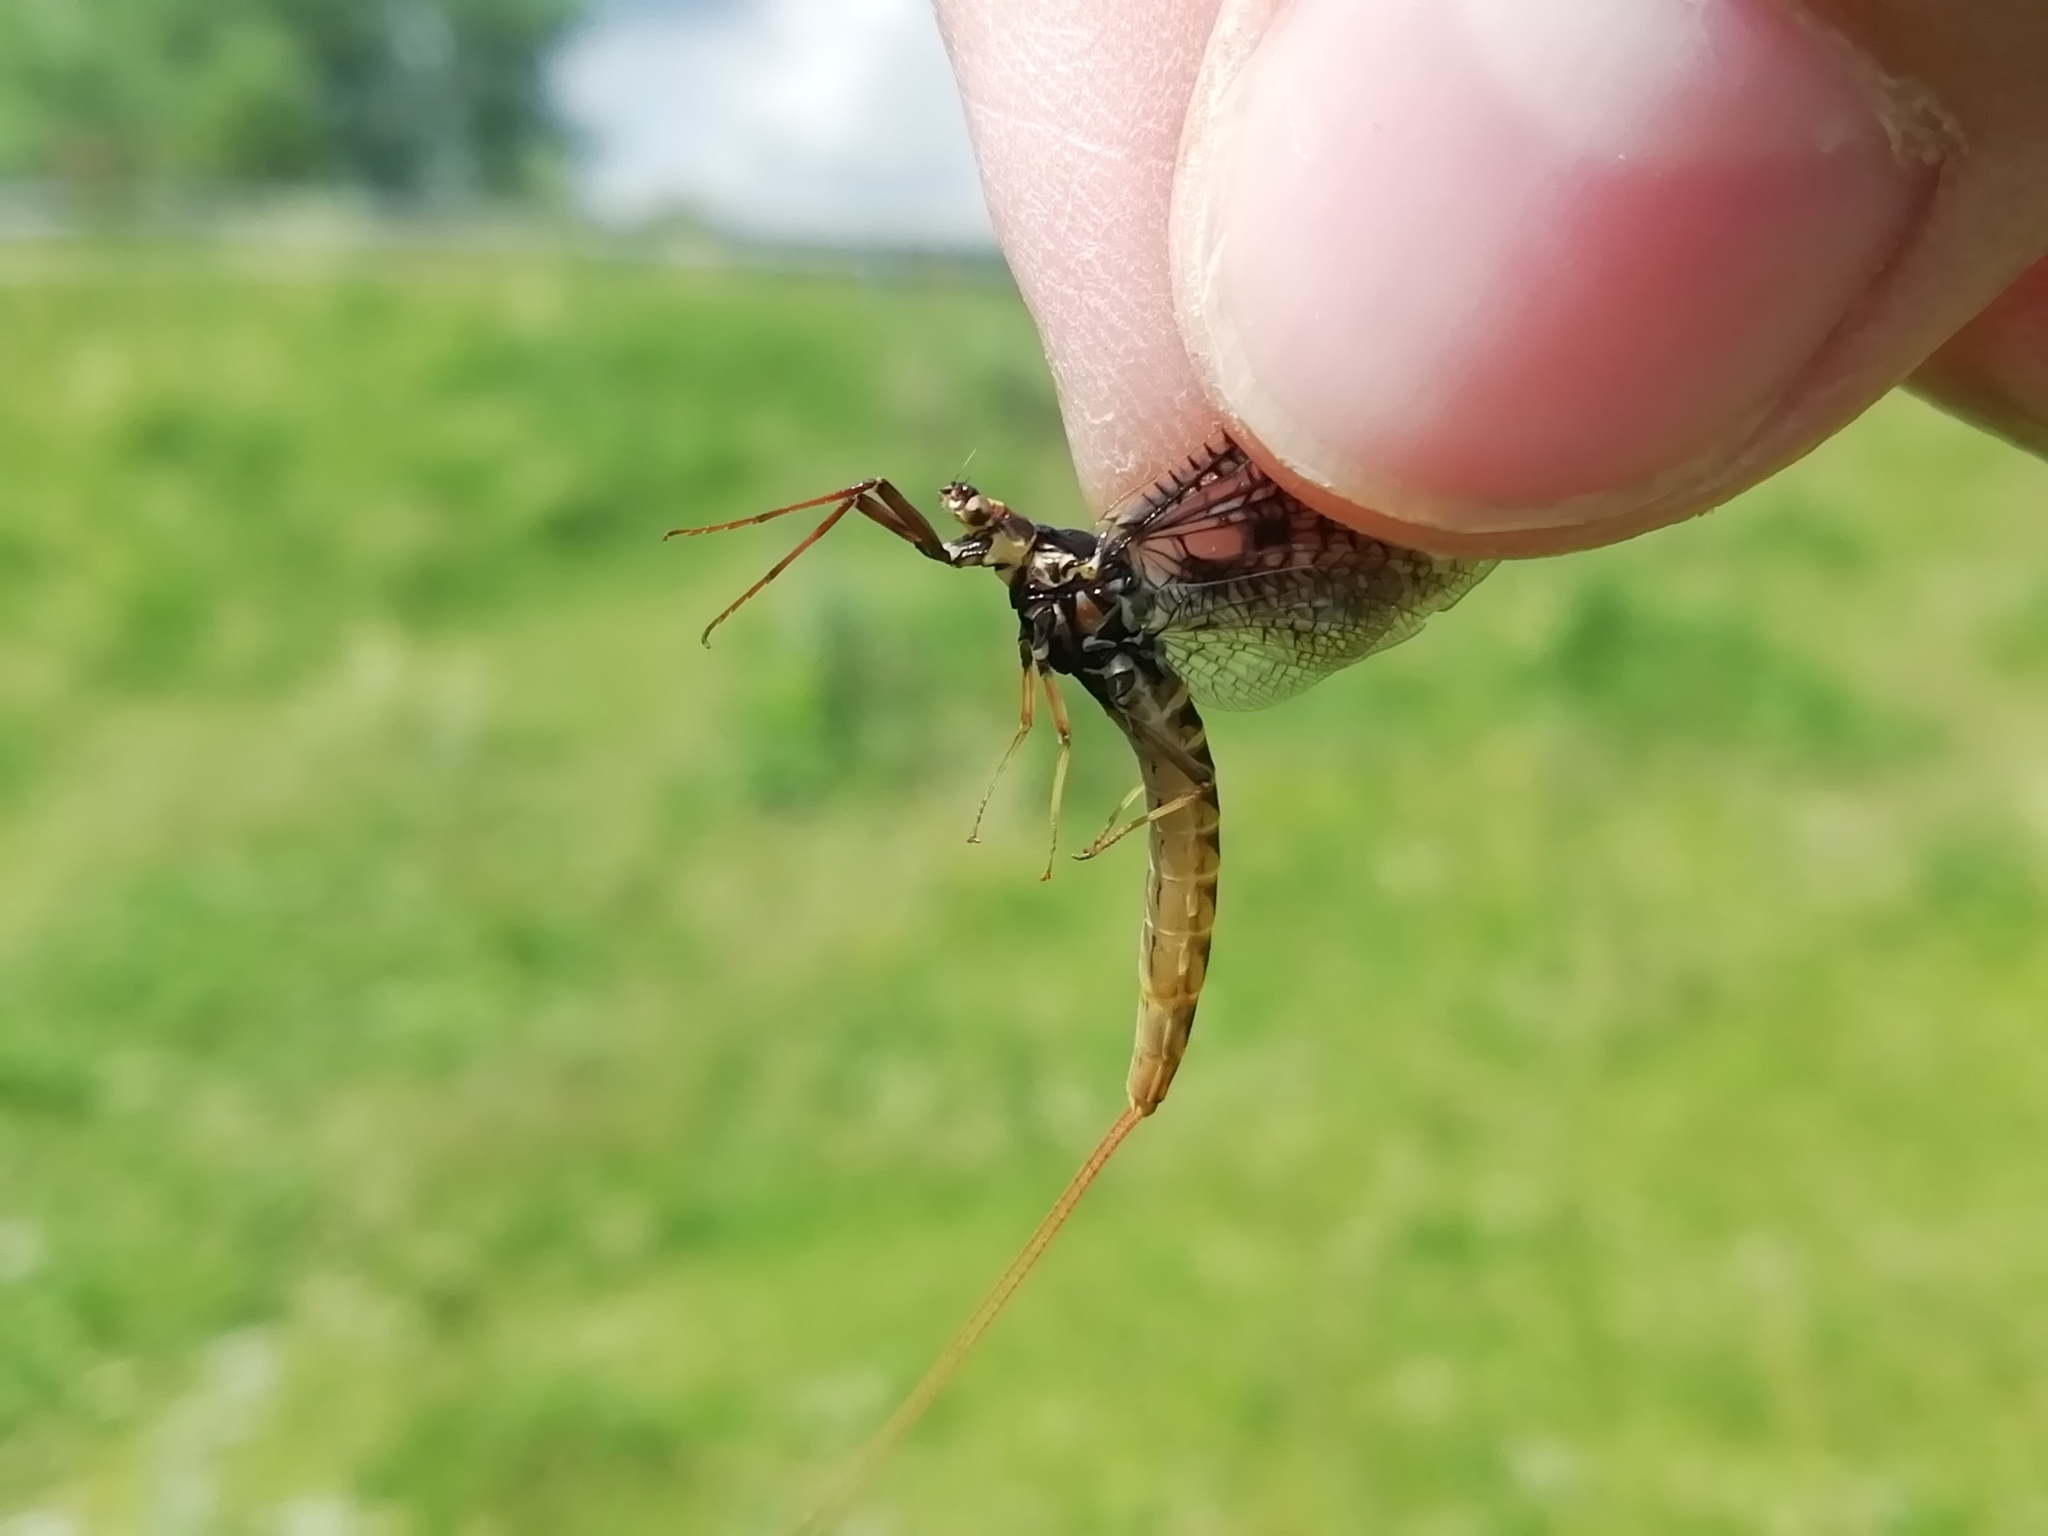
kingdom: Animalia
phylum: Arthropoda
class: Insecta
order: Ephemeroptera
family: Ephemeridae
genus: Ephemera
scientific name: Ephemera vulgata
